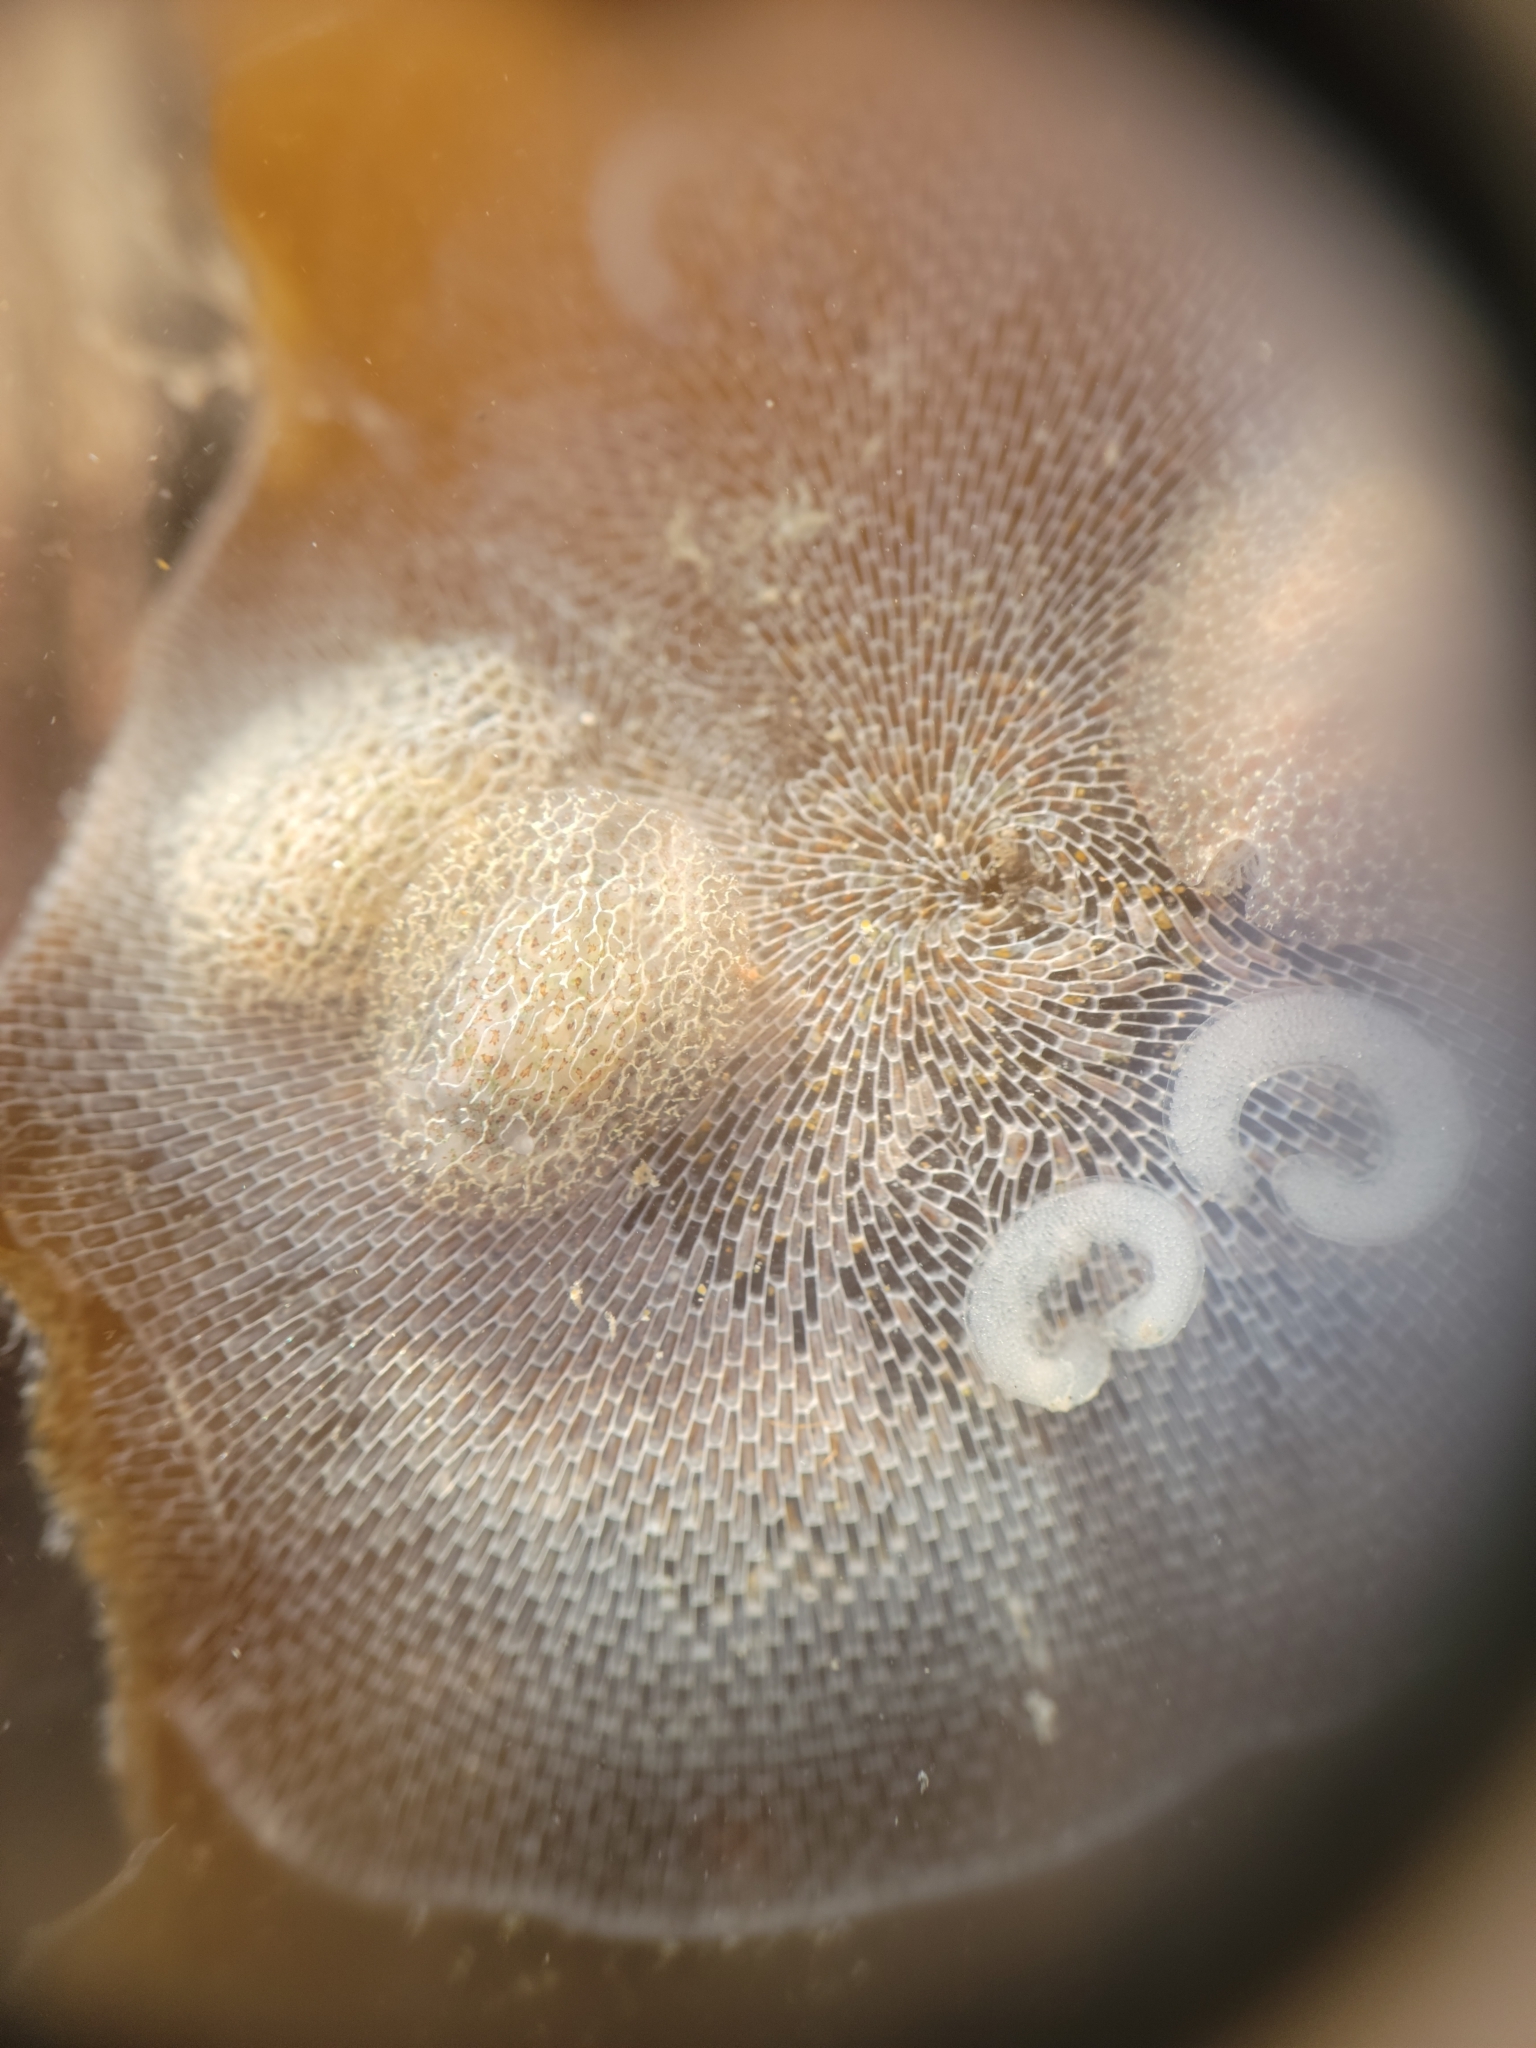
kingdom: Animalia
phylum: Mollusca
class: Gastropoda
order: Nudibranchia
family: Corambidae
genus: Corambe
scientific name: Corambe pacifica
